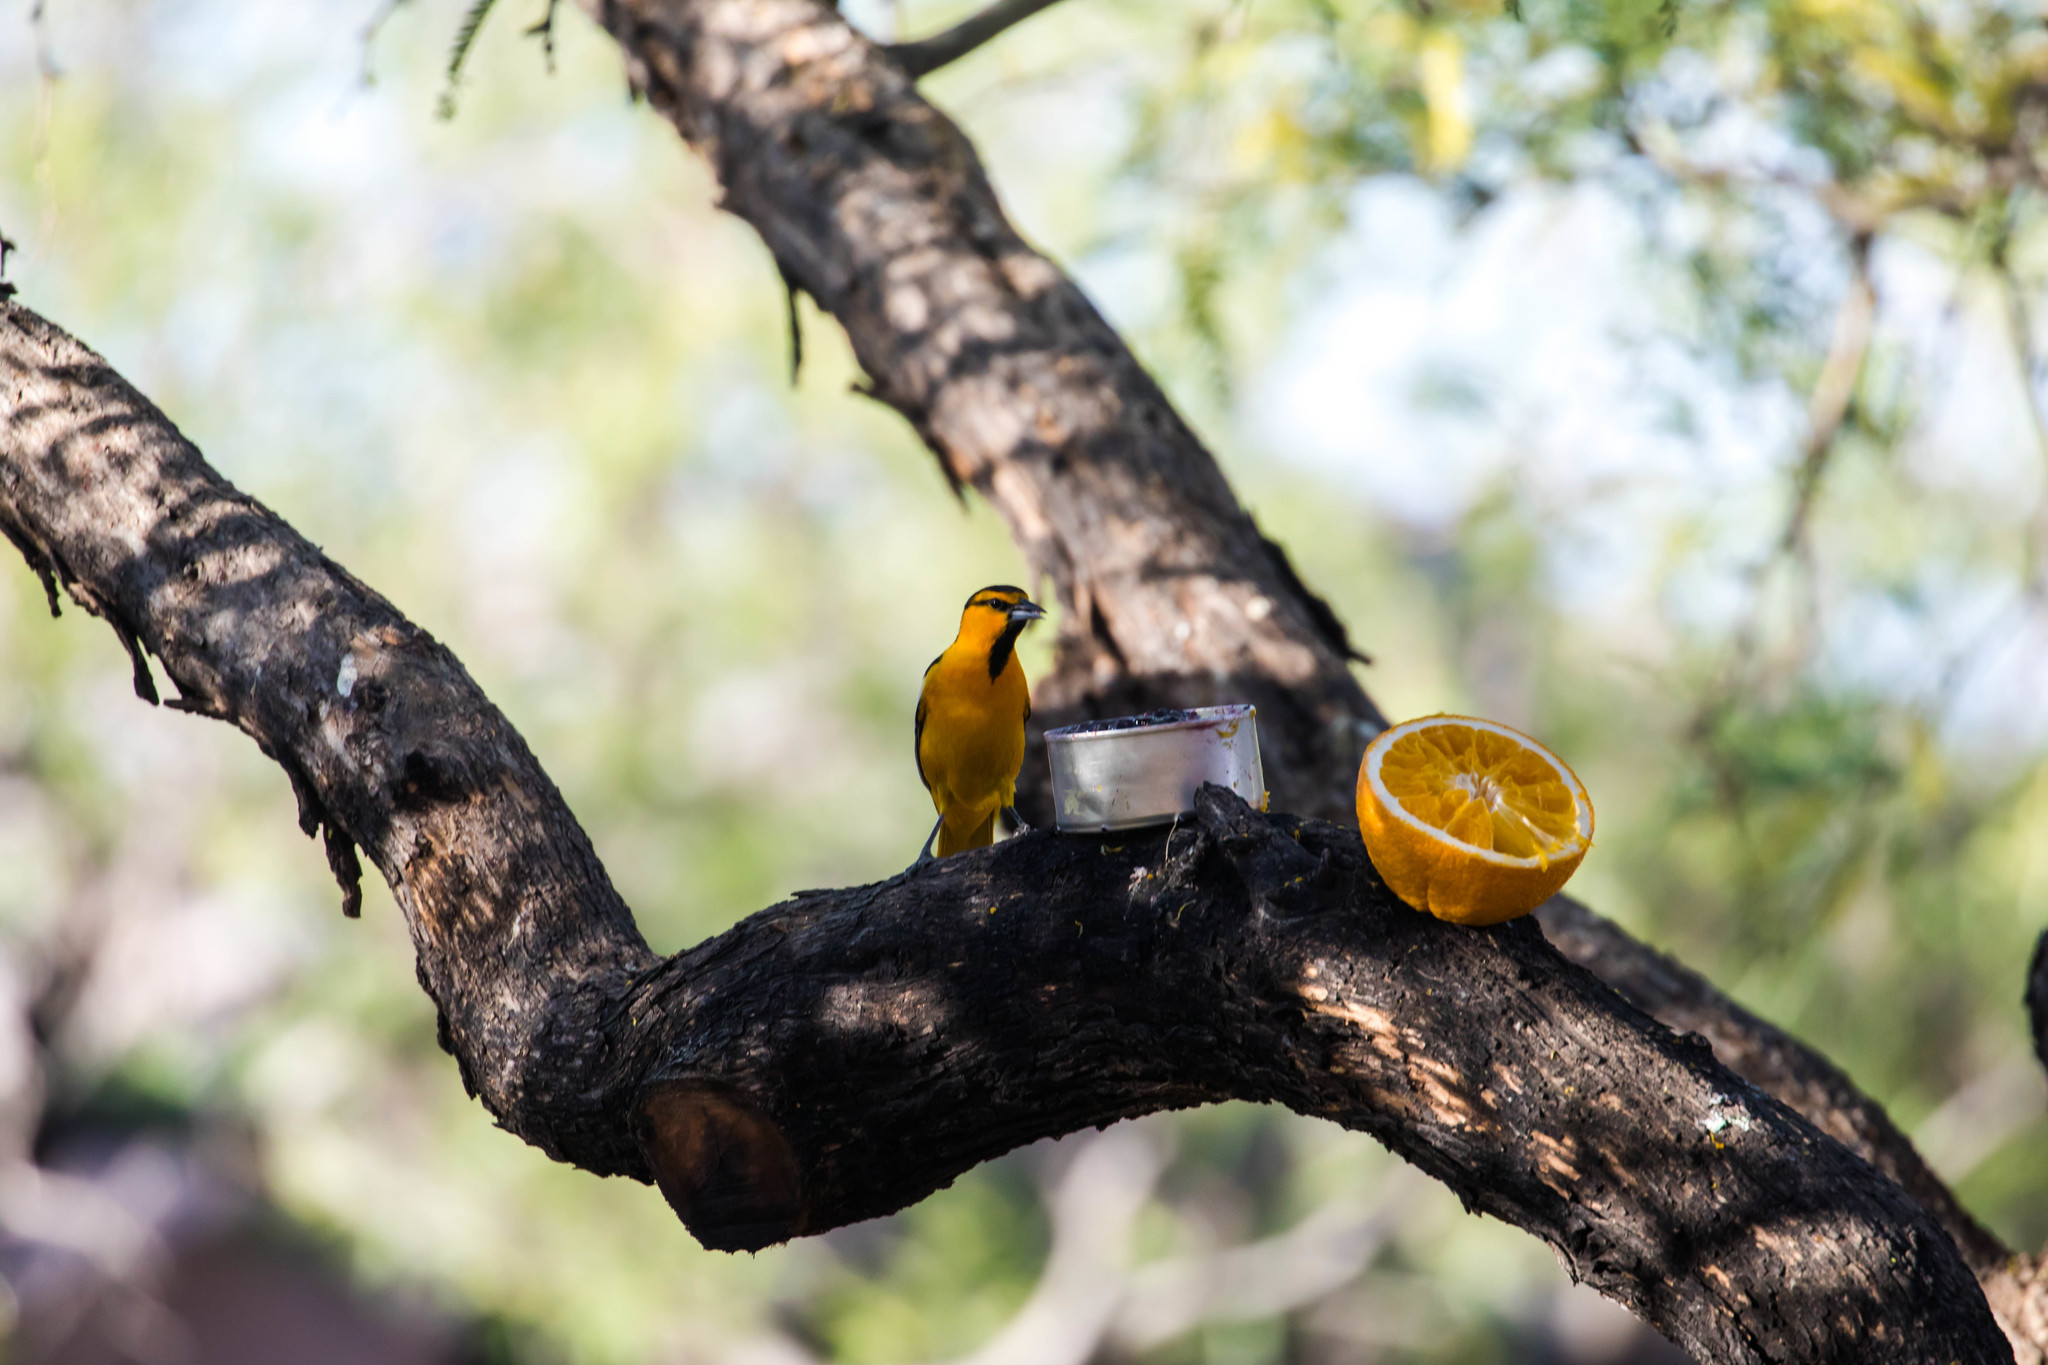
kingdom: Animalia
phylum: Chordata
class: Aves
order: Passeriformes
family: Icteridae
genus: Icterus
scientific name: Icterus bullockii
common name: Bullock's oriole
